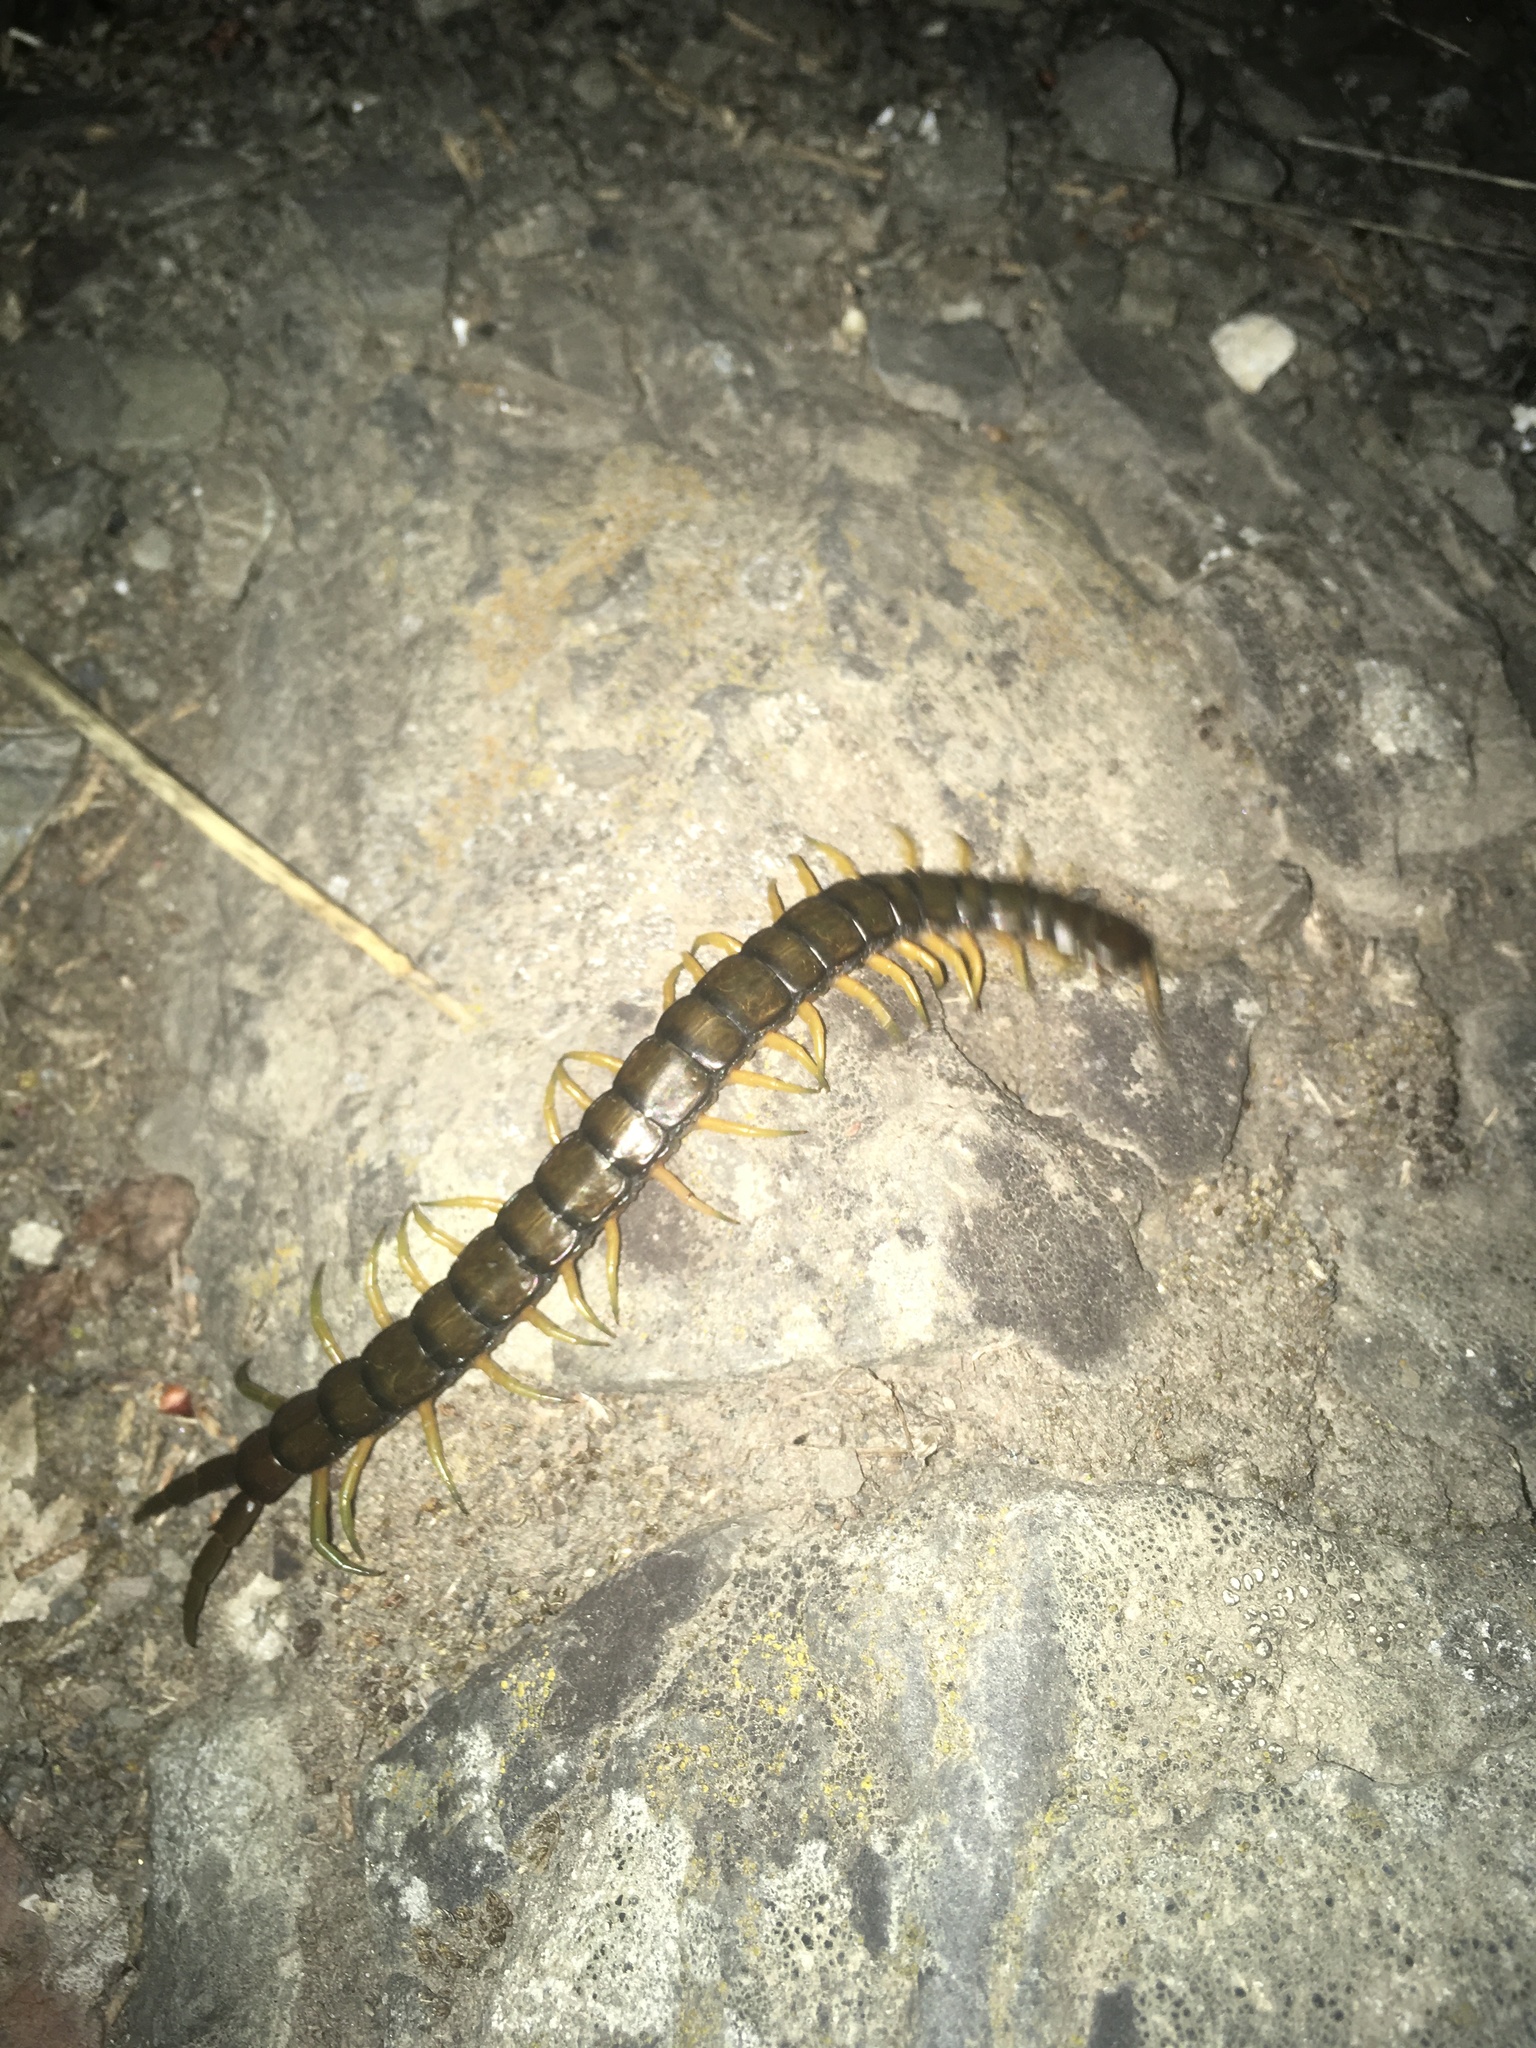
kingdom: Animalia
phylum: Arthropoda
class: Chilopoda
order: Scolopendromorpha
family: Scolopendridae
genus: Scolopendra
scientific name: Scolopendra cingulata
